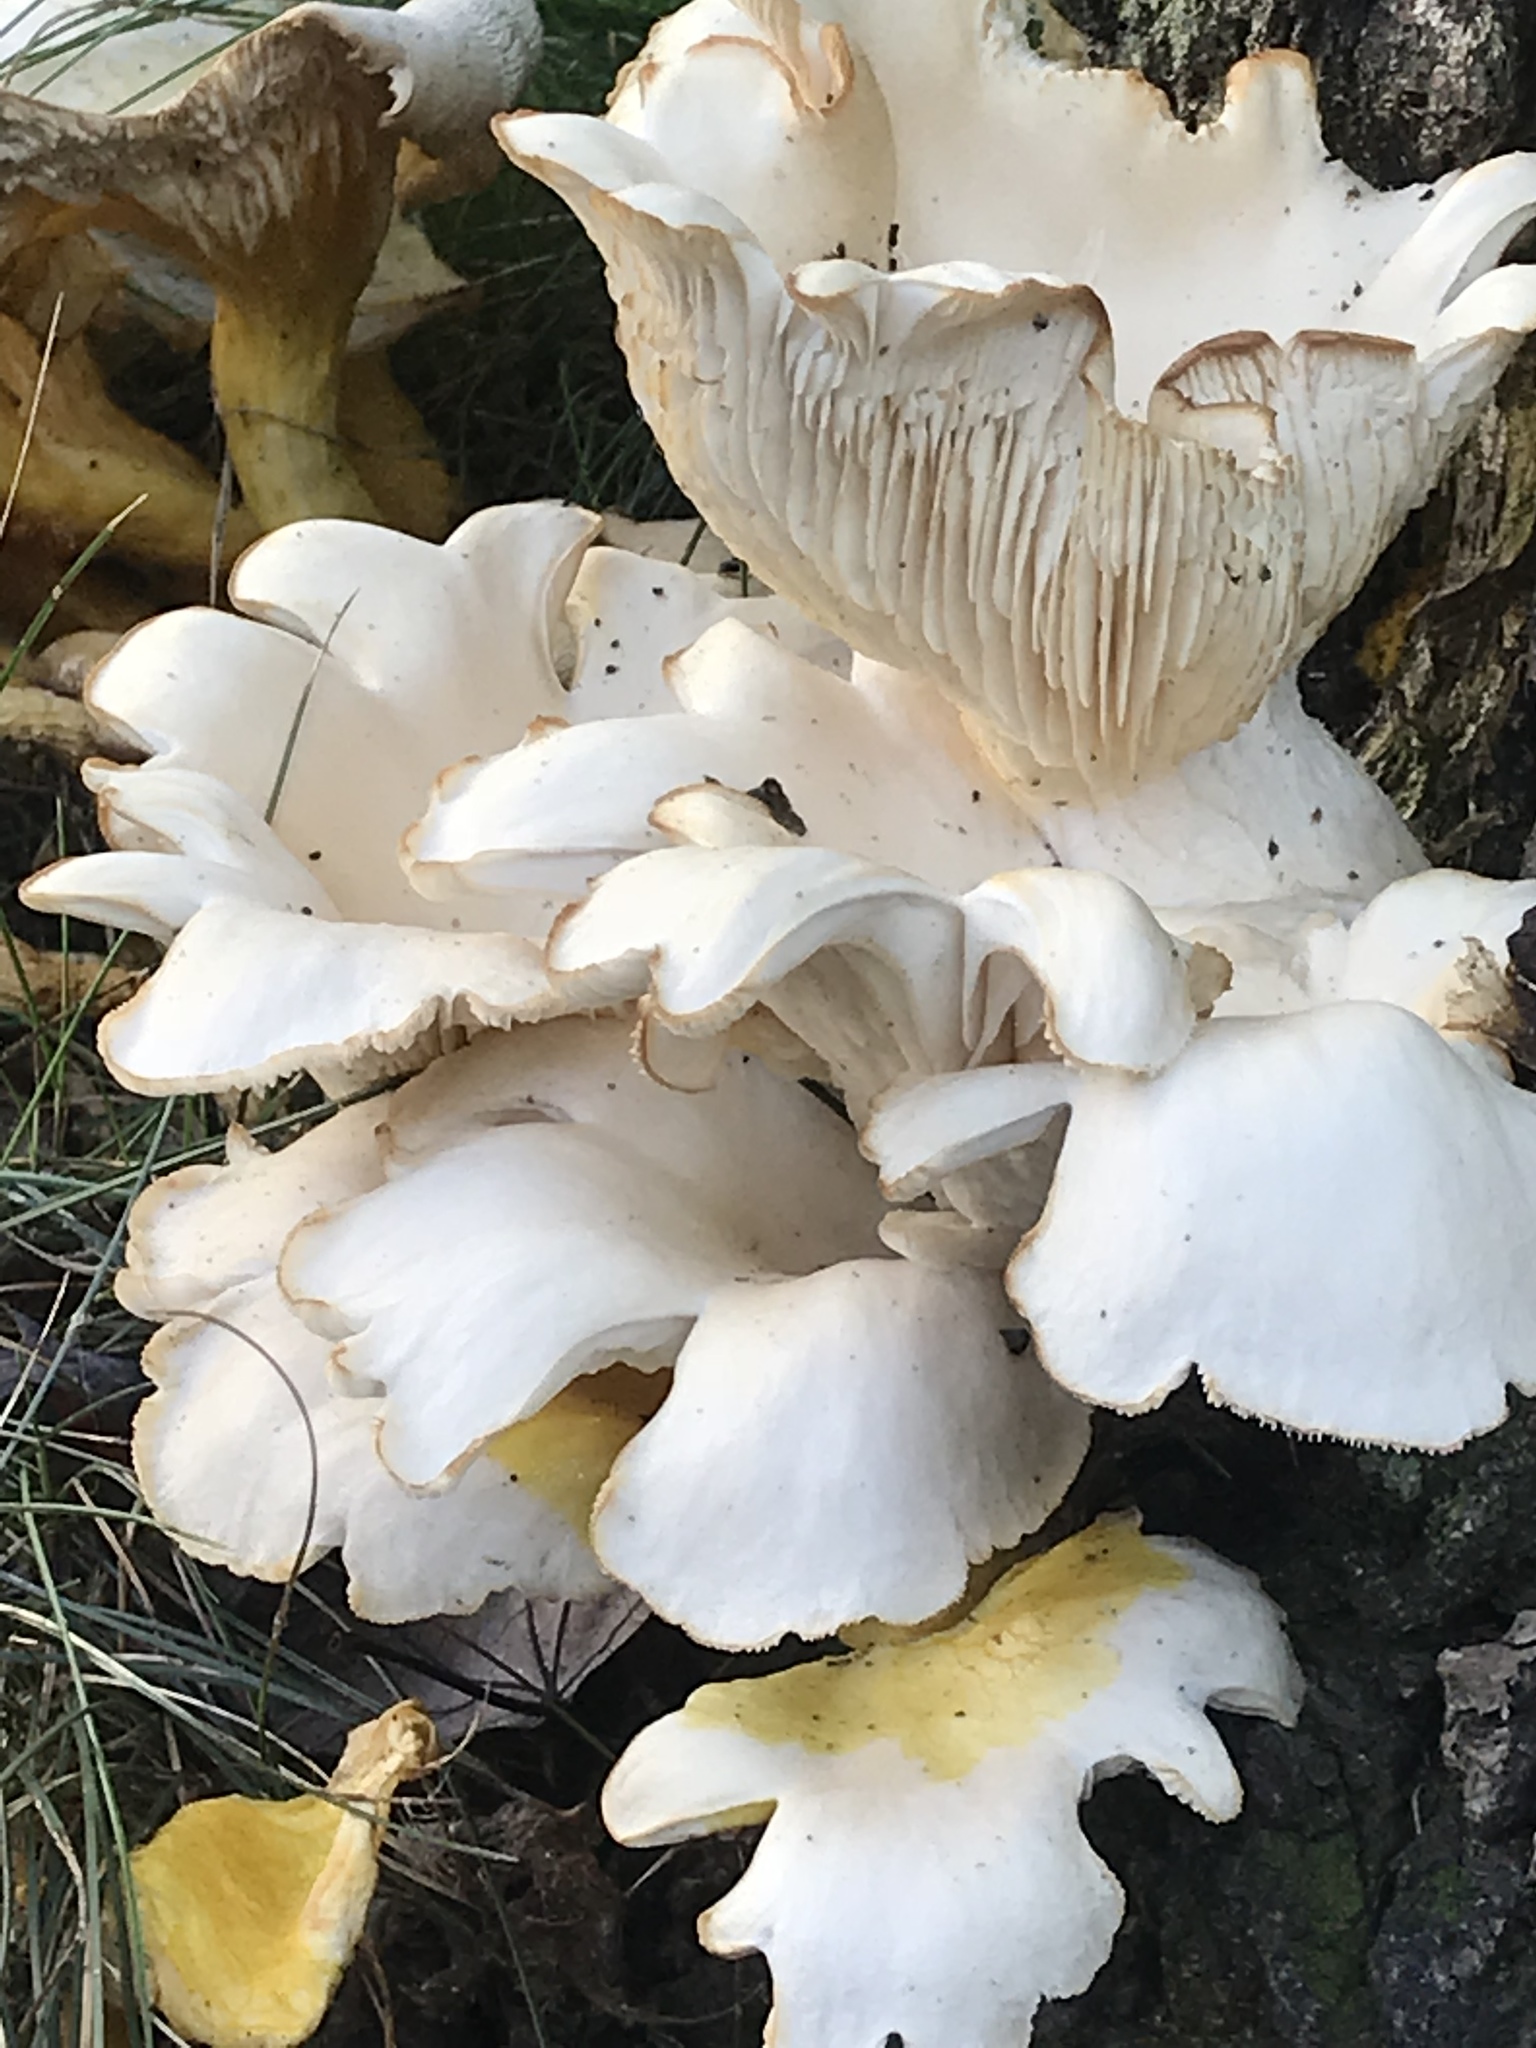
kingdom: Fungi
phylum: Basidiomycota
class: Agaricomycetes
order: Agaricales
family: Pleurotaceae
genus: Pleurotus
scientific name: Pleurotus pulmonarius
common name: Pale oyster
